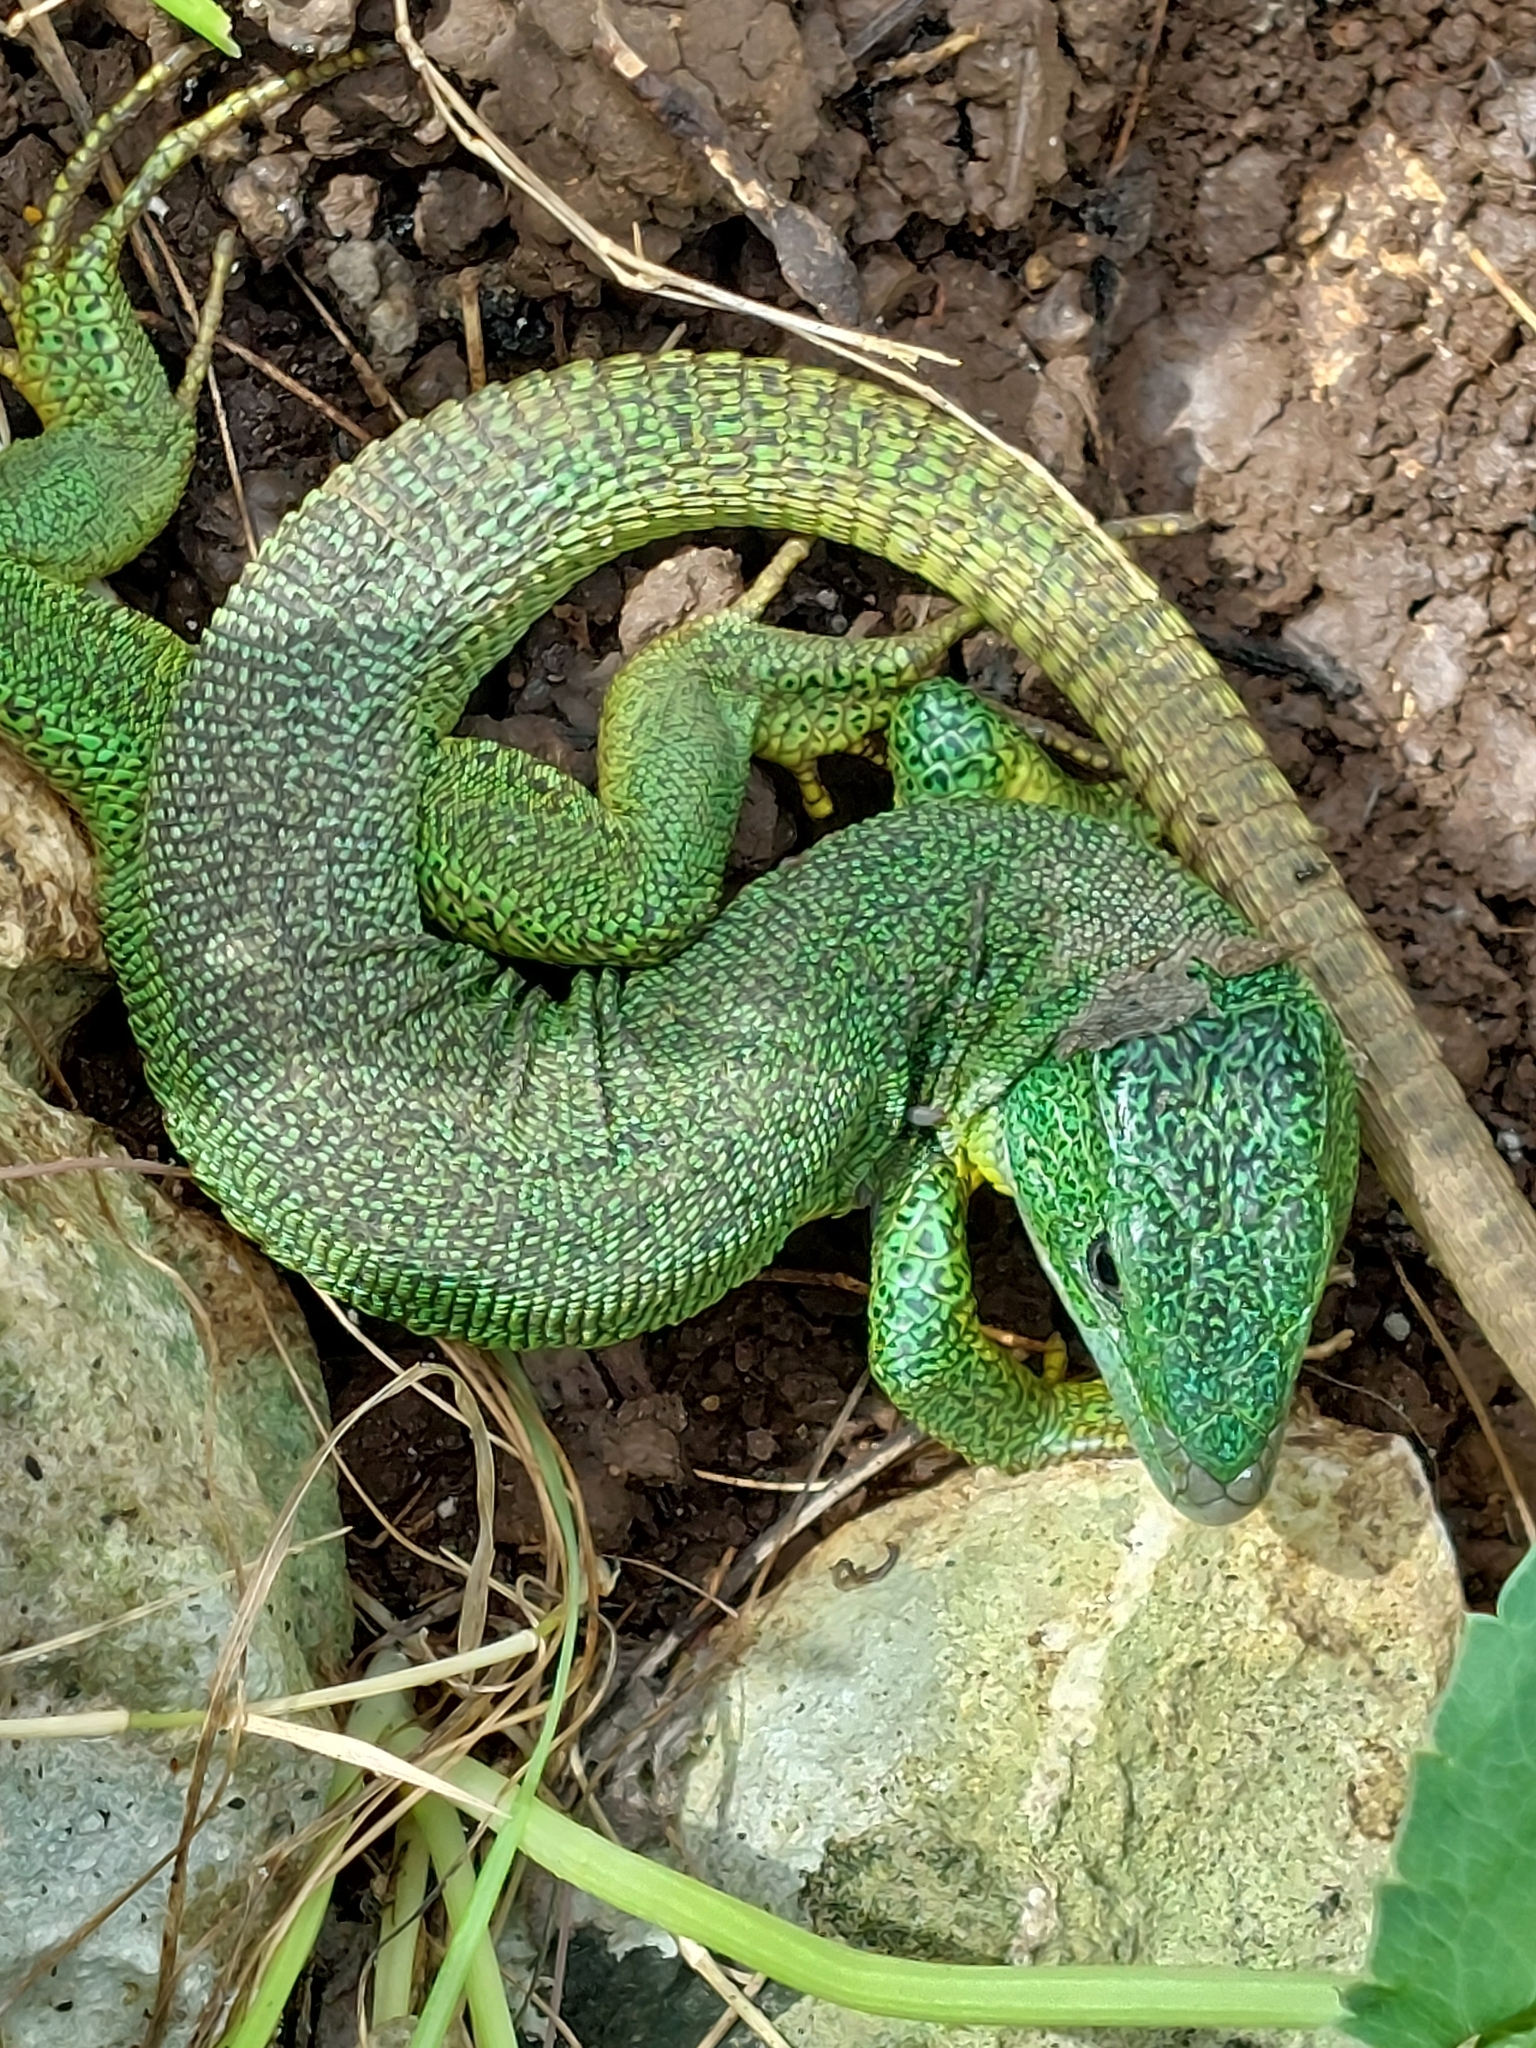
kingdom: Animalia
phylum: Chordata
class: Squamata
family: Lacertidae
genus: Lacerta
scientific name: Lacerta trilineata
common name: Balkan green lizard
